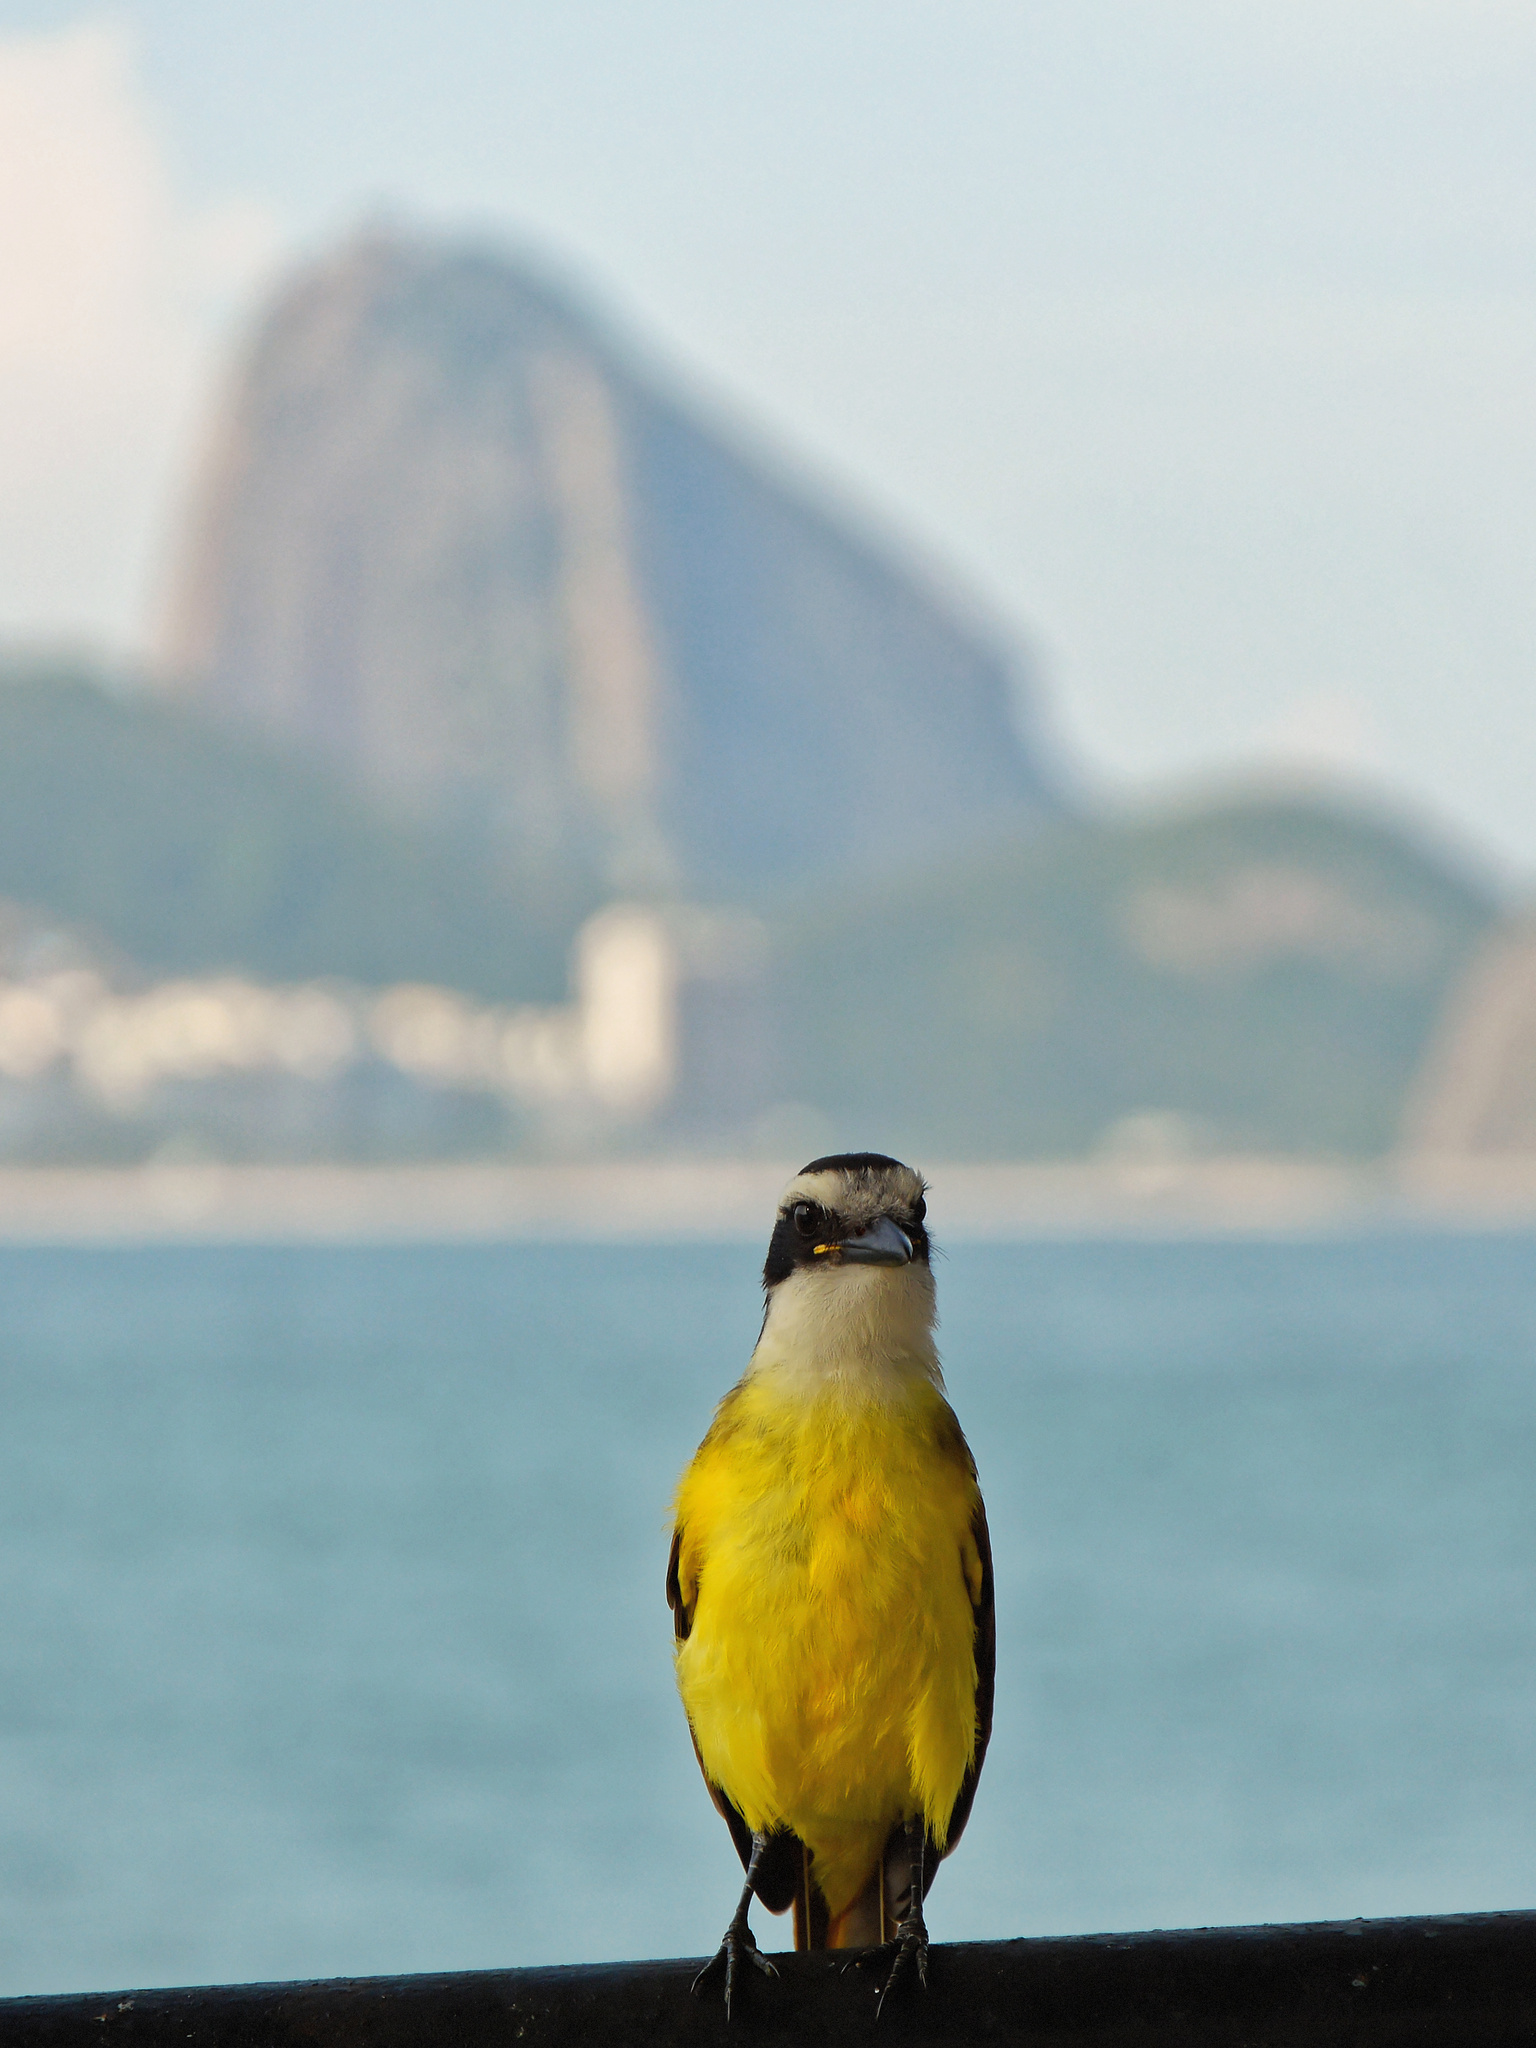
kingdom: Animalia
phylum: Chordata
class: Aves
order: Passeriformes
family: Tyrannidae
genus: Pitangus
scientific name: Pitangus sulphuratus
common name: Great kiskadee
